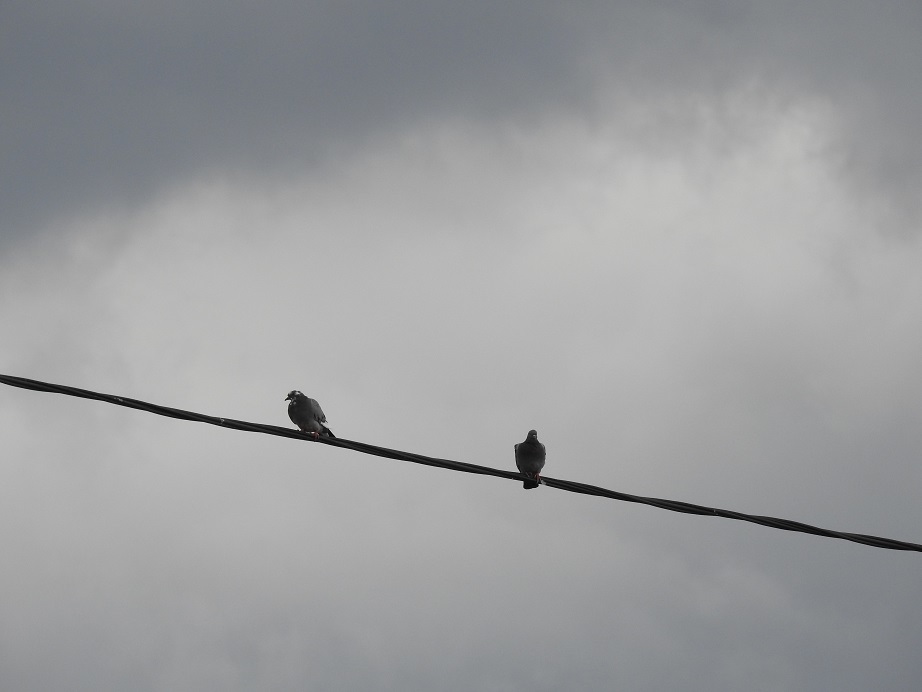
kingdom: Animalia
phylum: Chordata
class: Aves
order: Columbiformes
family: Columbidae
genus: Columba
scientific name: Columba livia
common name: Rock pigeon
